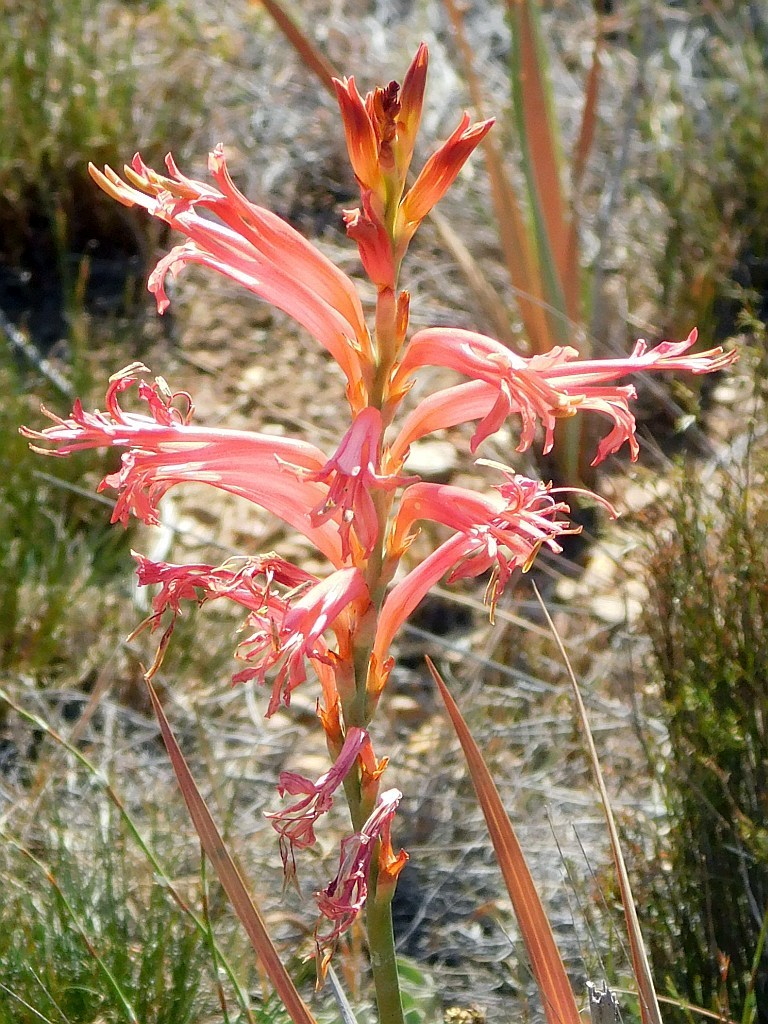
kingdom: Plantae
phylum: Tracheophyta
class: Liliopsida
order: Asparagales
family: Iridaceae
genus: Tritoniopsis
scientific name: Tritoniopsis antholyza
